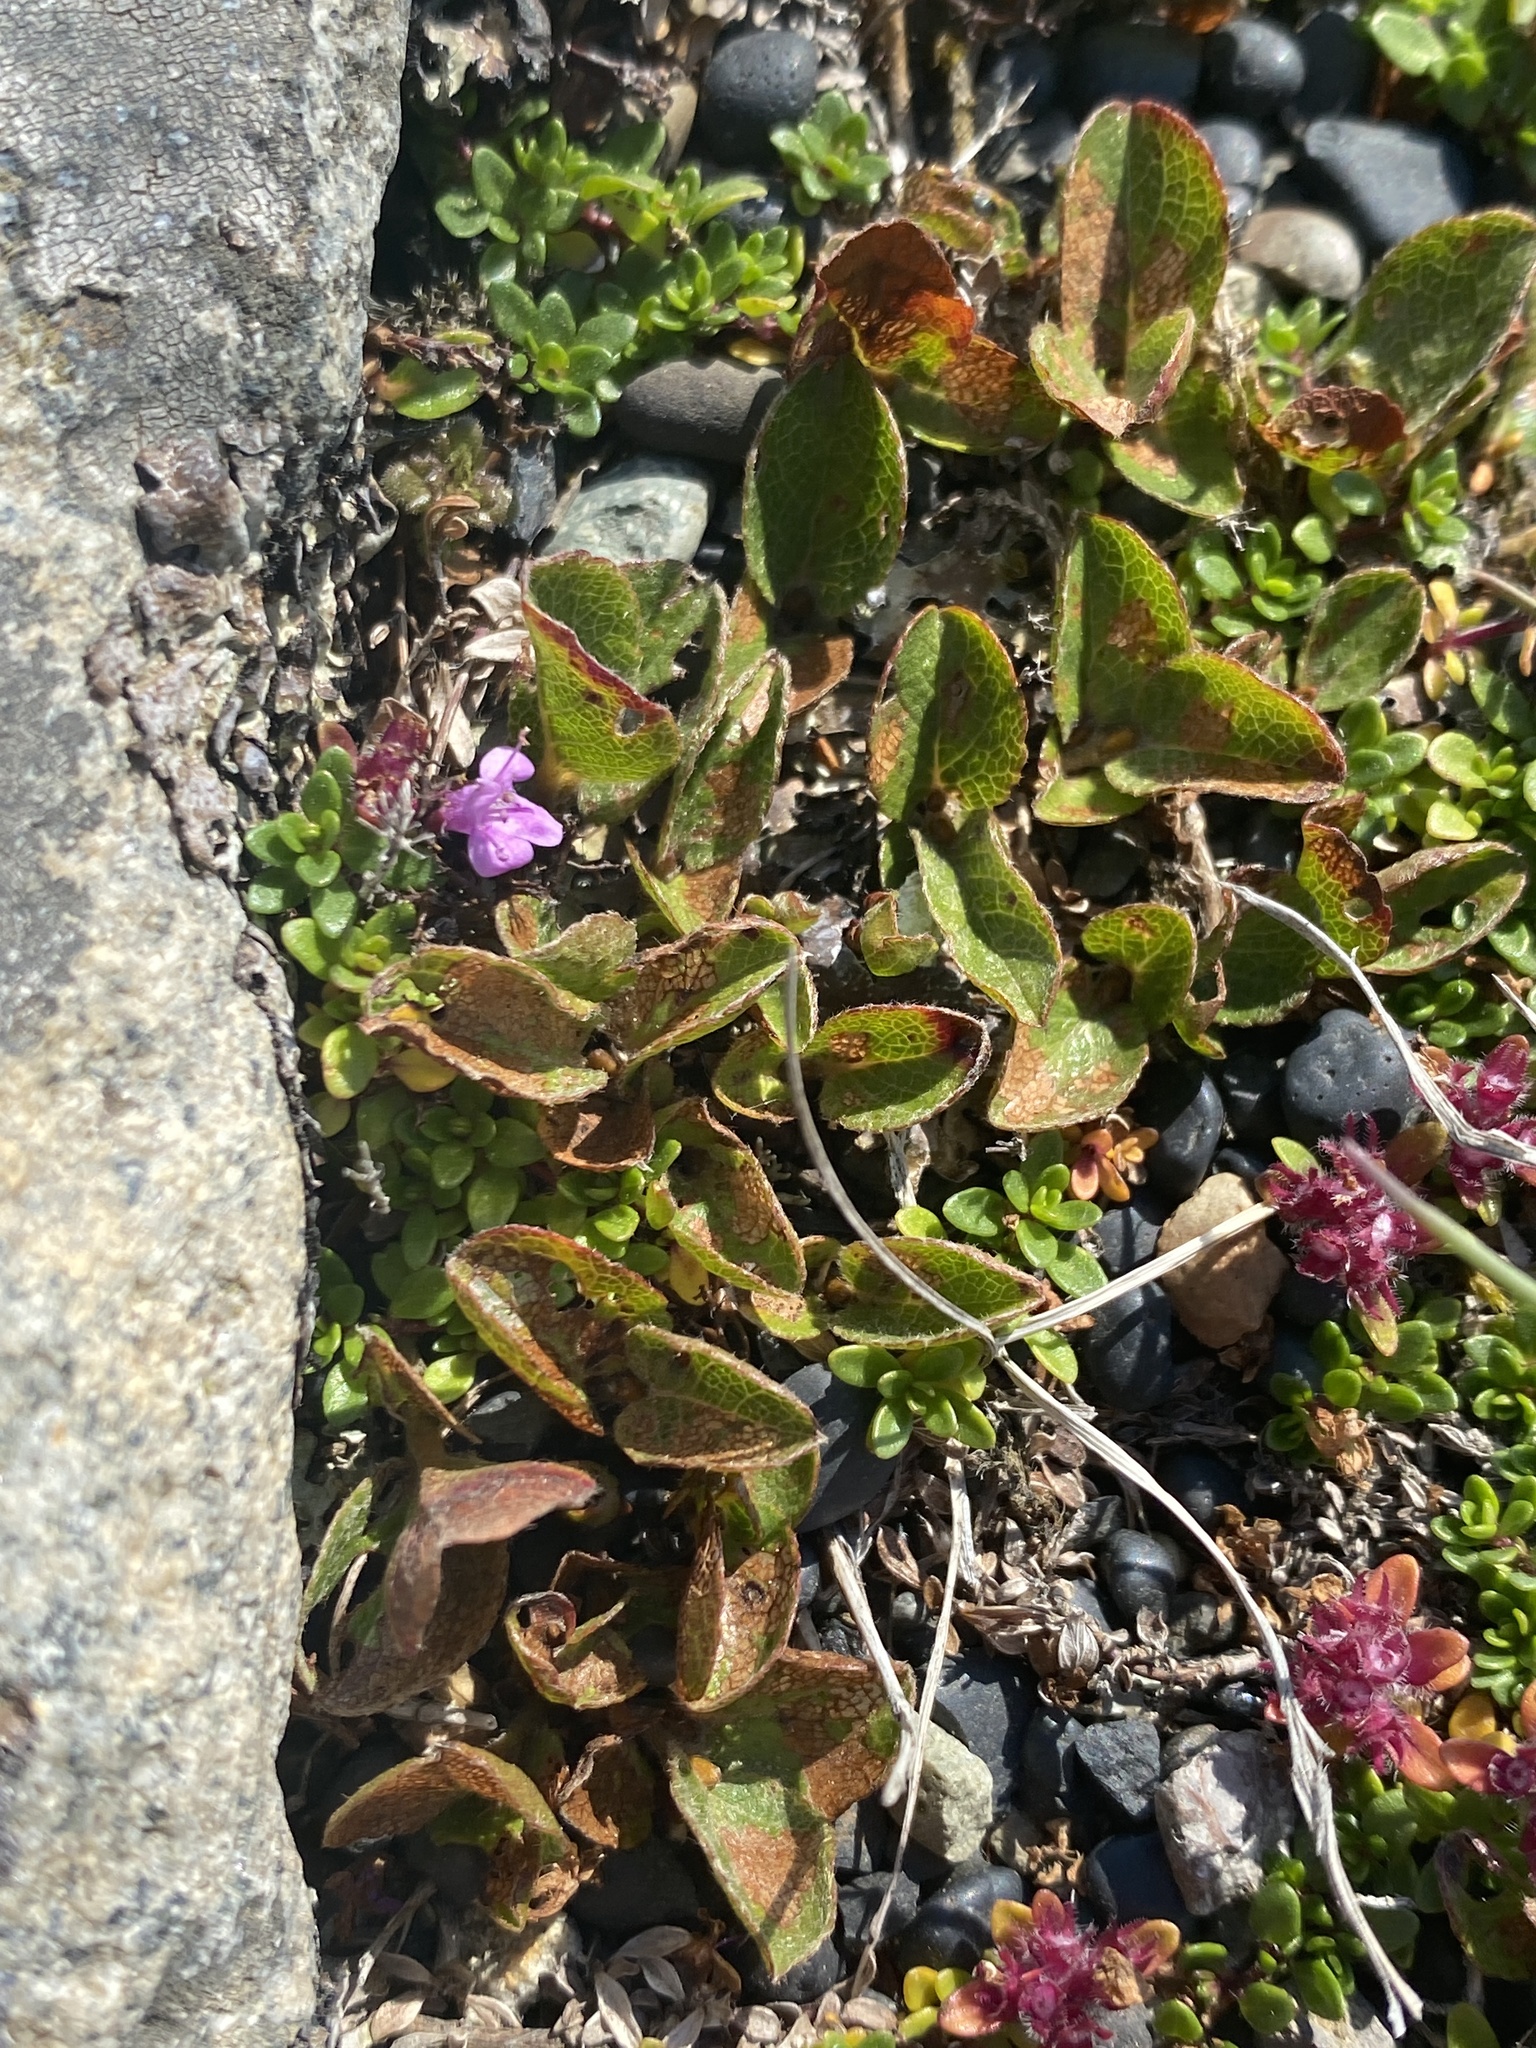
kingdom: Plantae
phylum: Tracheophyta
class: Magnoliopsida
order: Malpighiales
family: Salicaceae
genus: Salix
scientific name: Salix herbacea
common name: Dwarf willow
